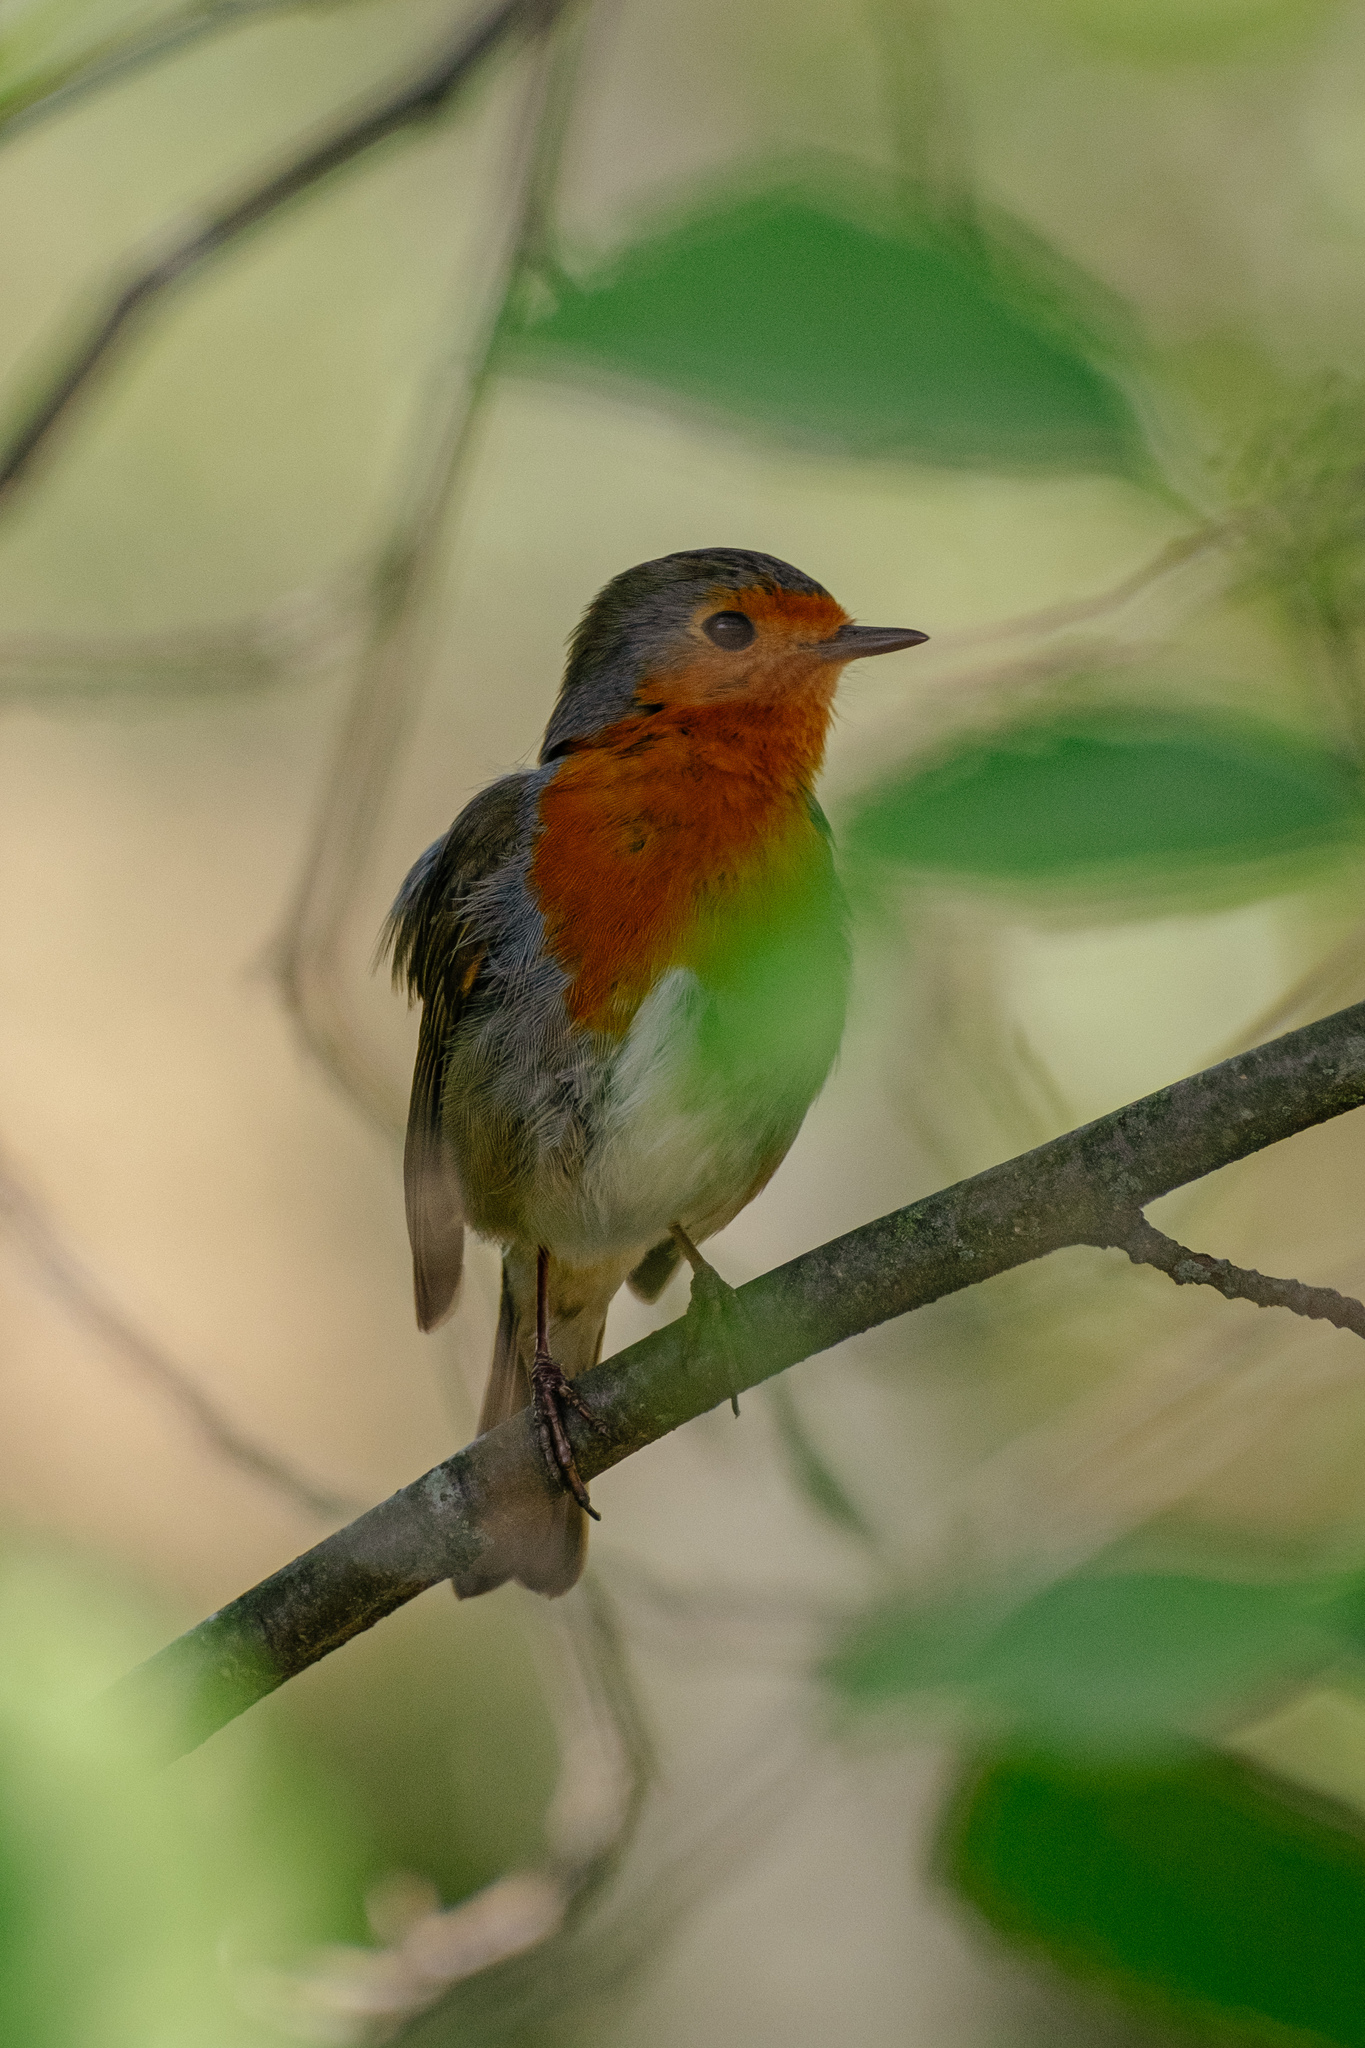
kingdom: Animalia
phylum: Chordata
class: Aves
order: Passeriformes
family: Muscicapidae
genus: Erithacus
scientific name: Erithacus rubecula
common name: European robin
